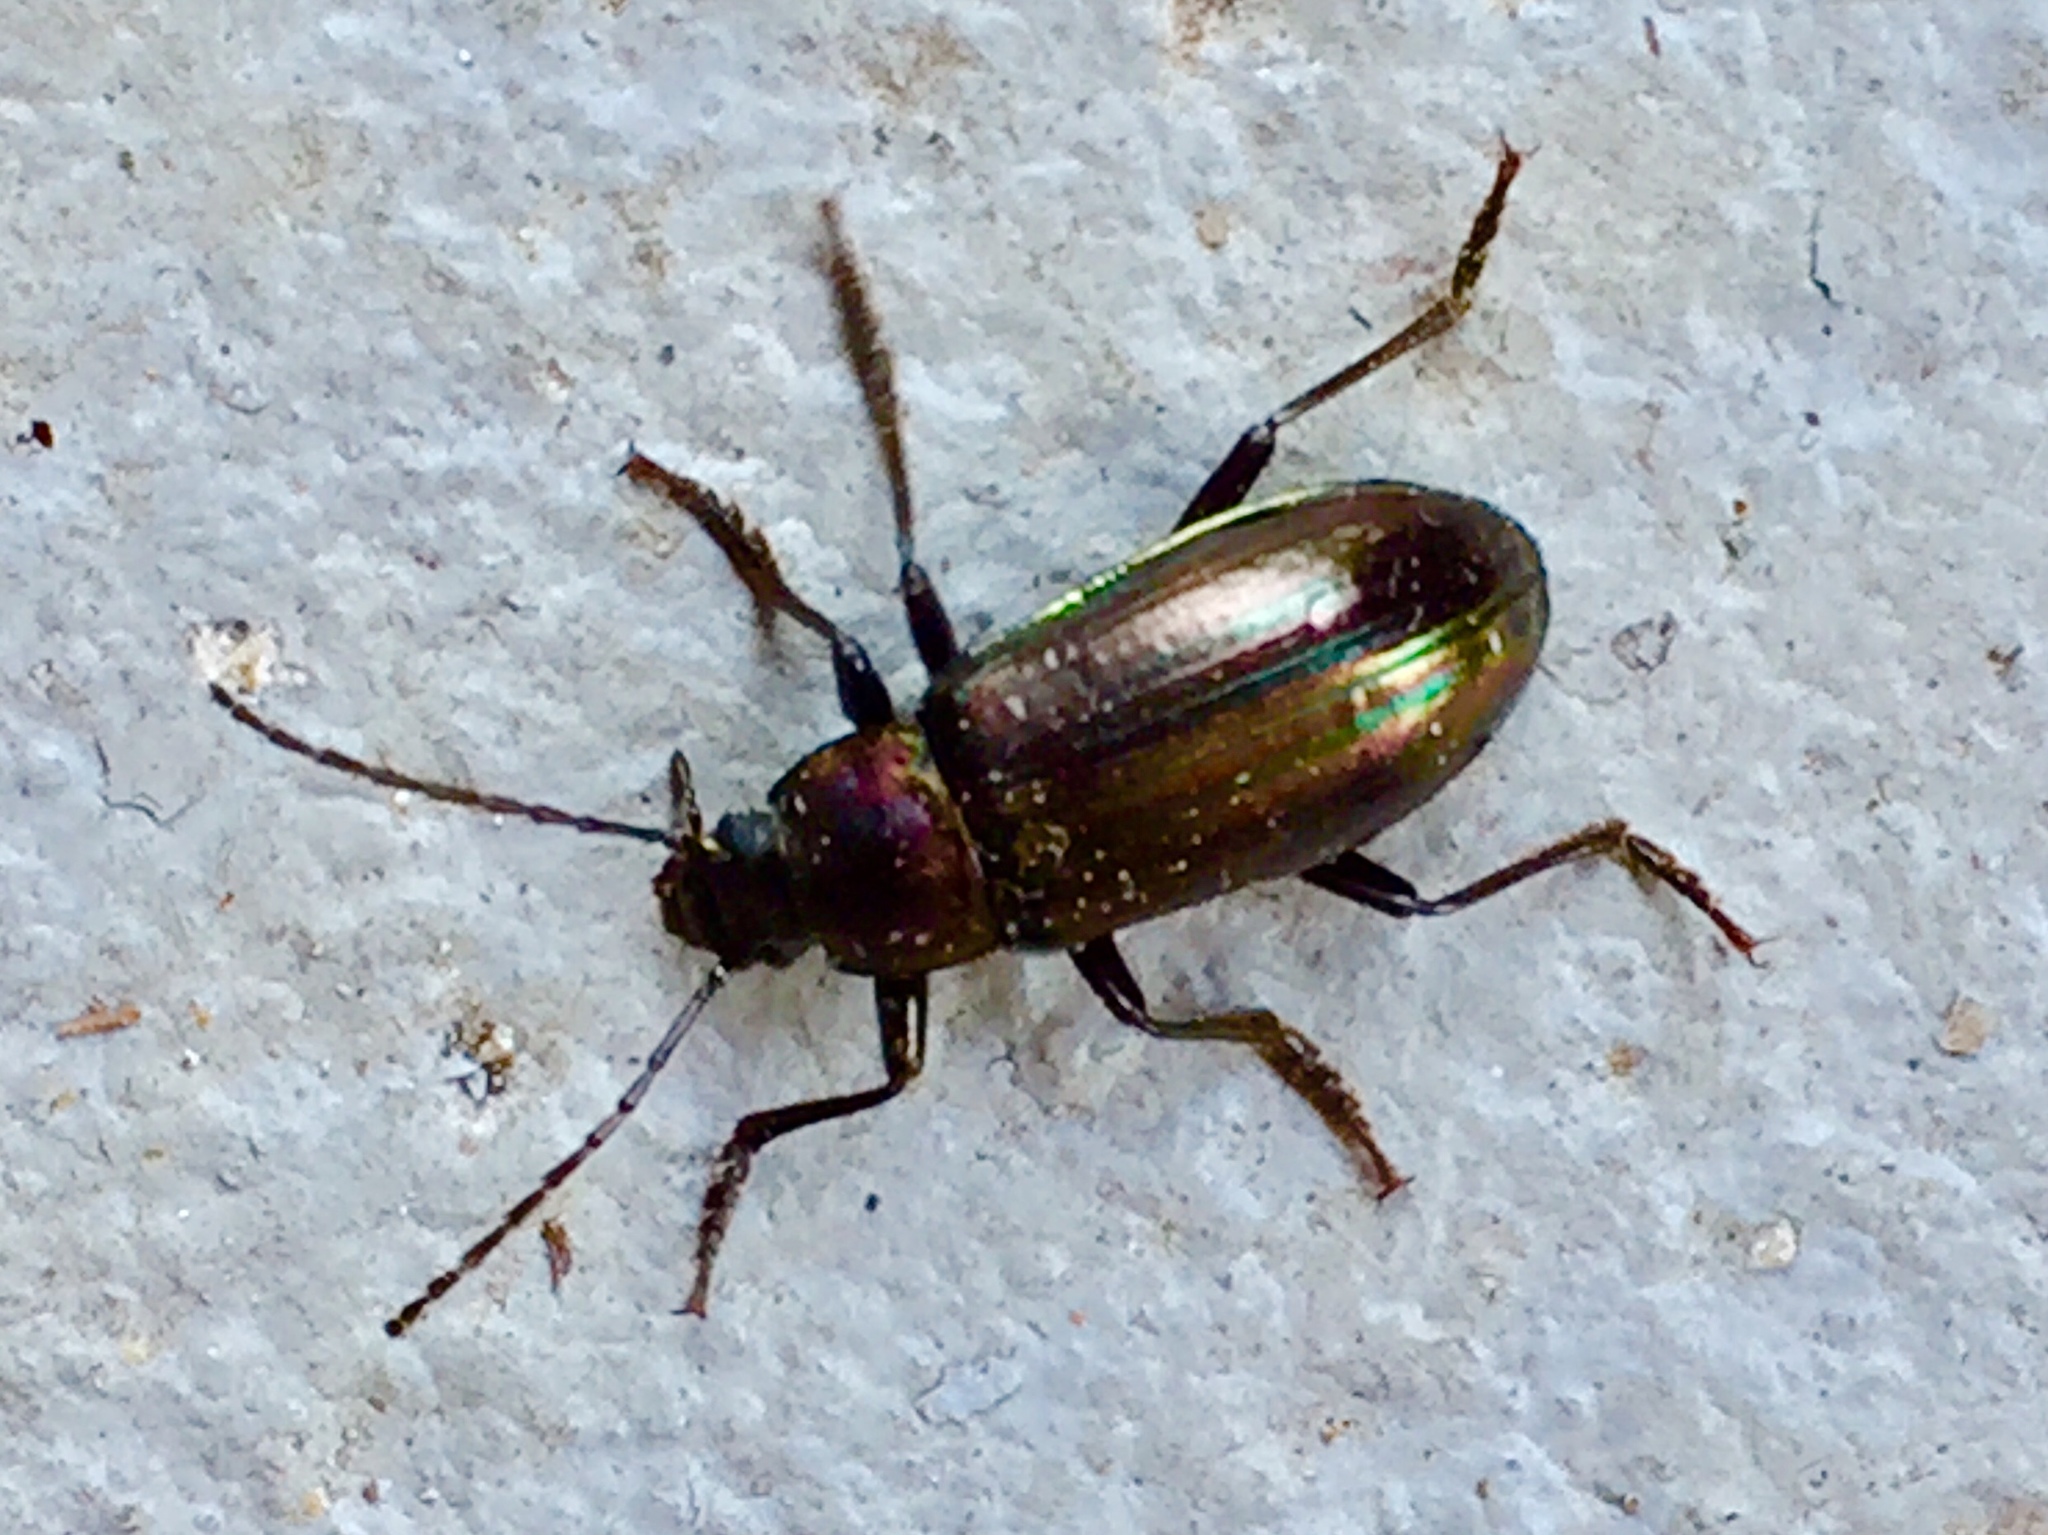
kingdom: Animalia
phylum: Arthropoda
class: Insecta
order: Coleoptera
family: Tenebrionidae
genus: Tarpela
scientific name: Tarpela micans
